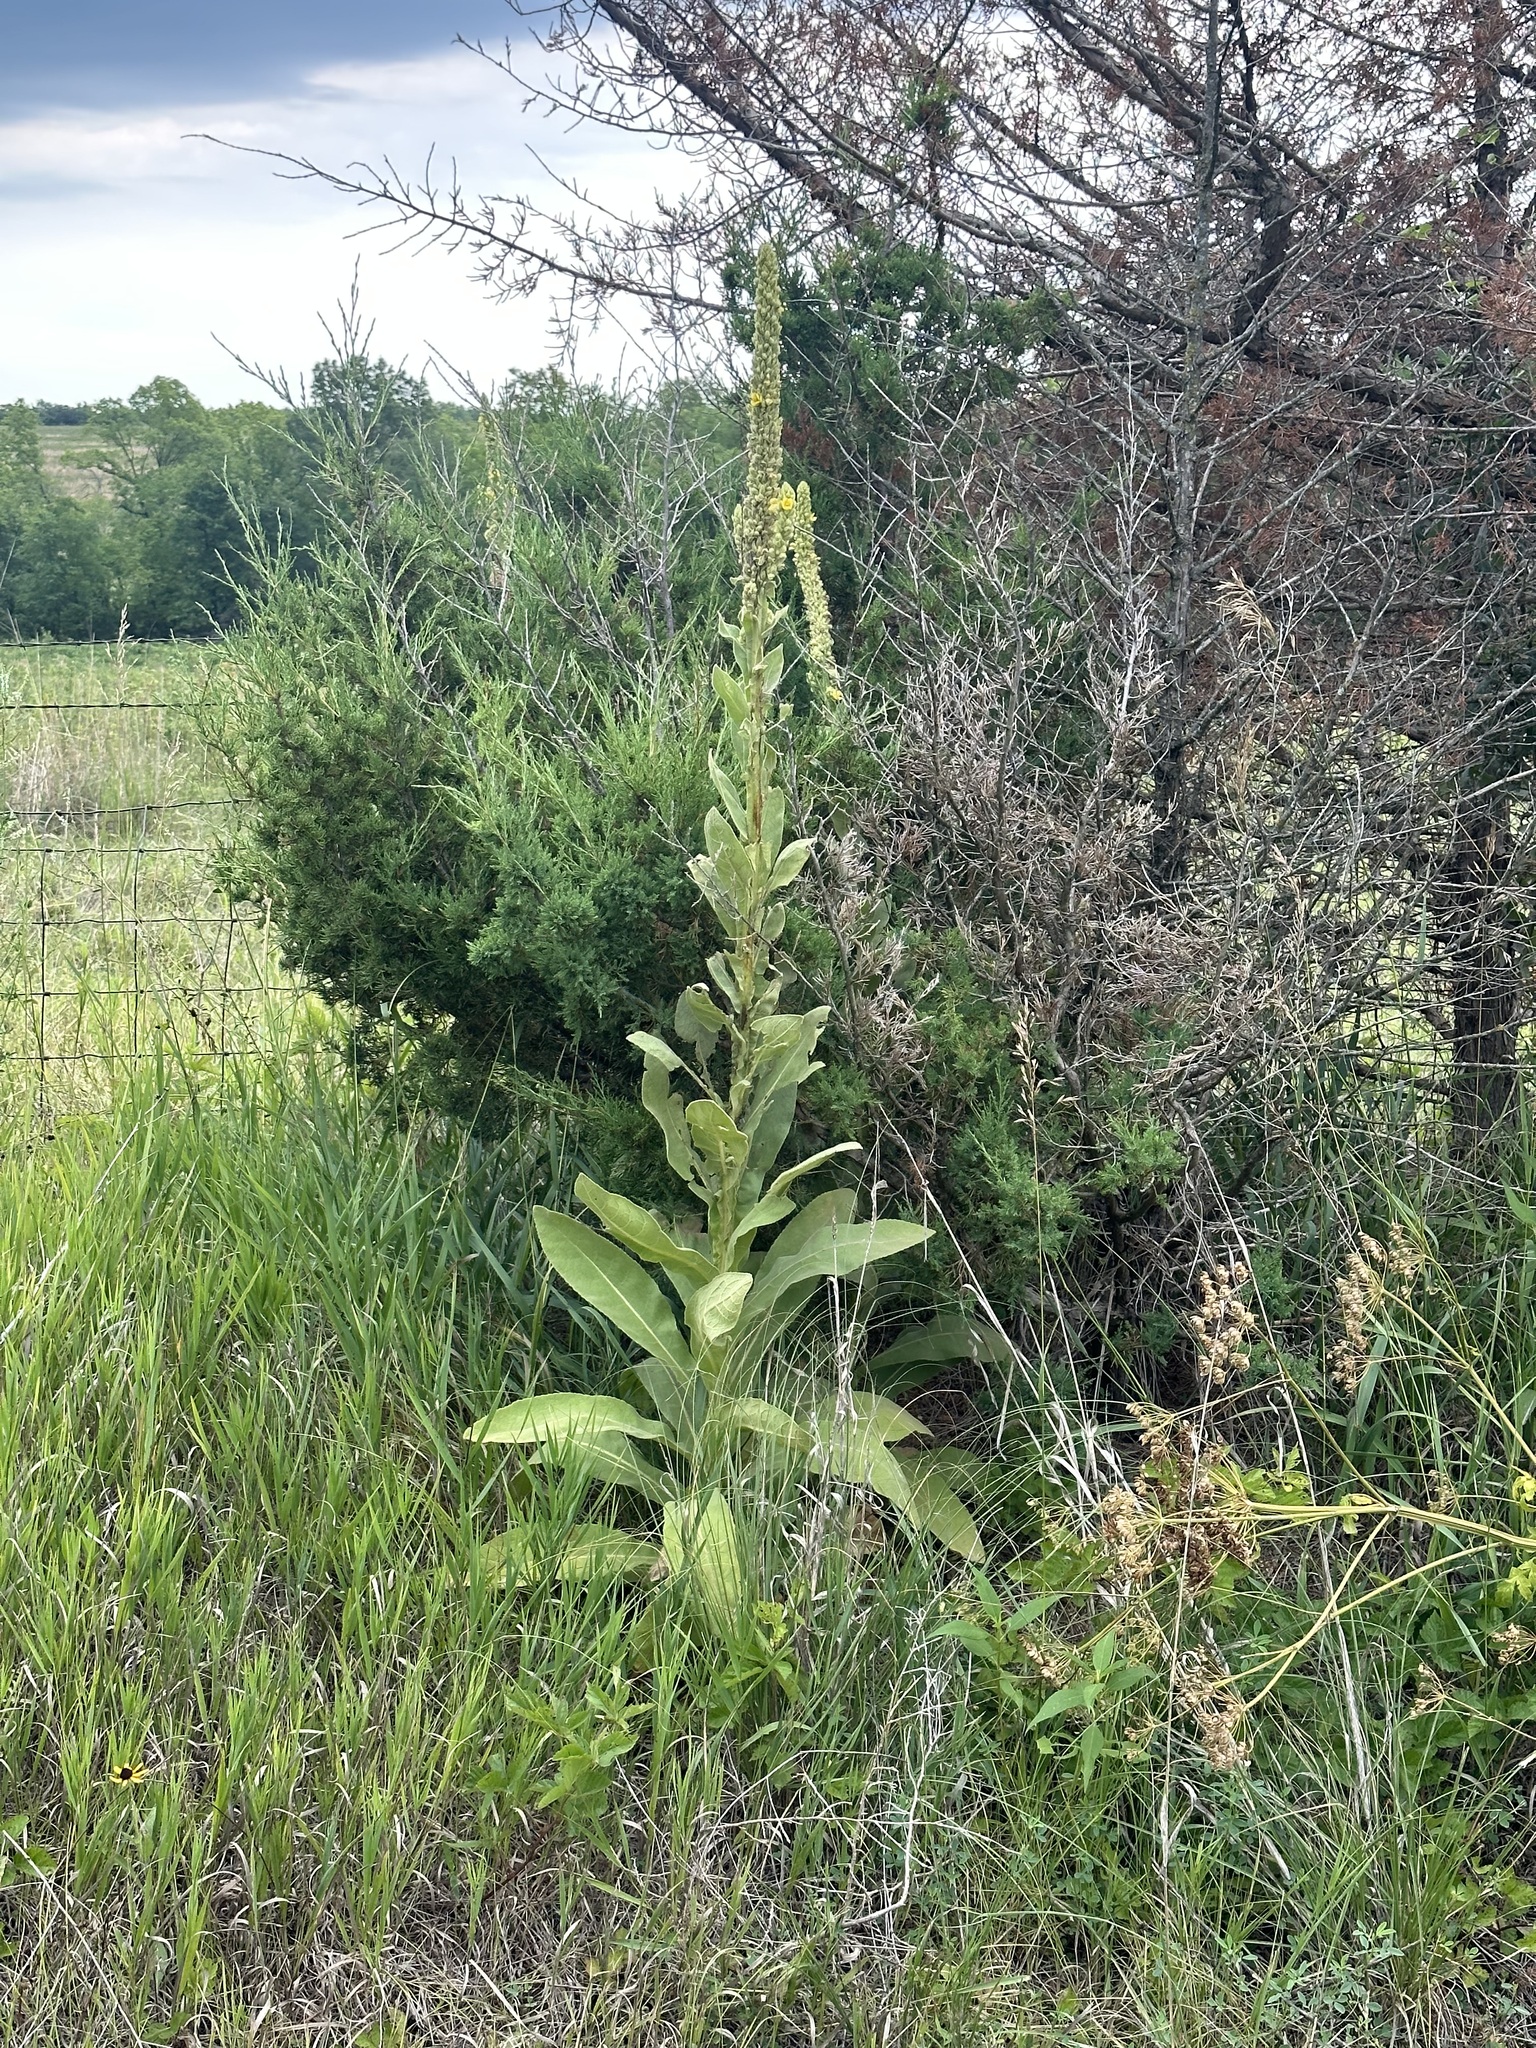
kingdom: Plantae
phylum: Tracheophyta
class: Magnoliopsida
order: Lamiales
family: Scrophulariaceae
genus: Verbascum
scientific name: Verbascum thapsus
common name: Common mullein
